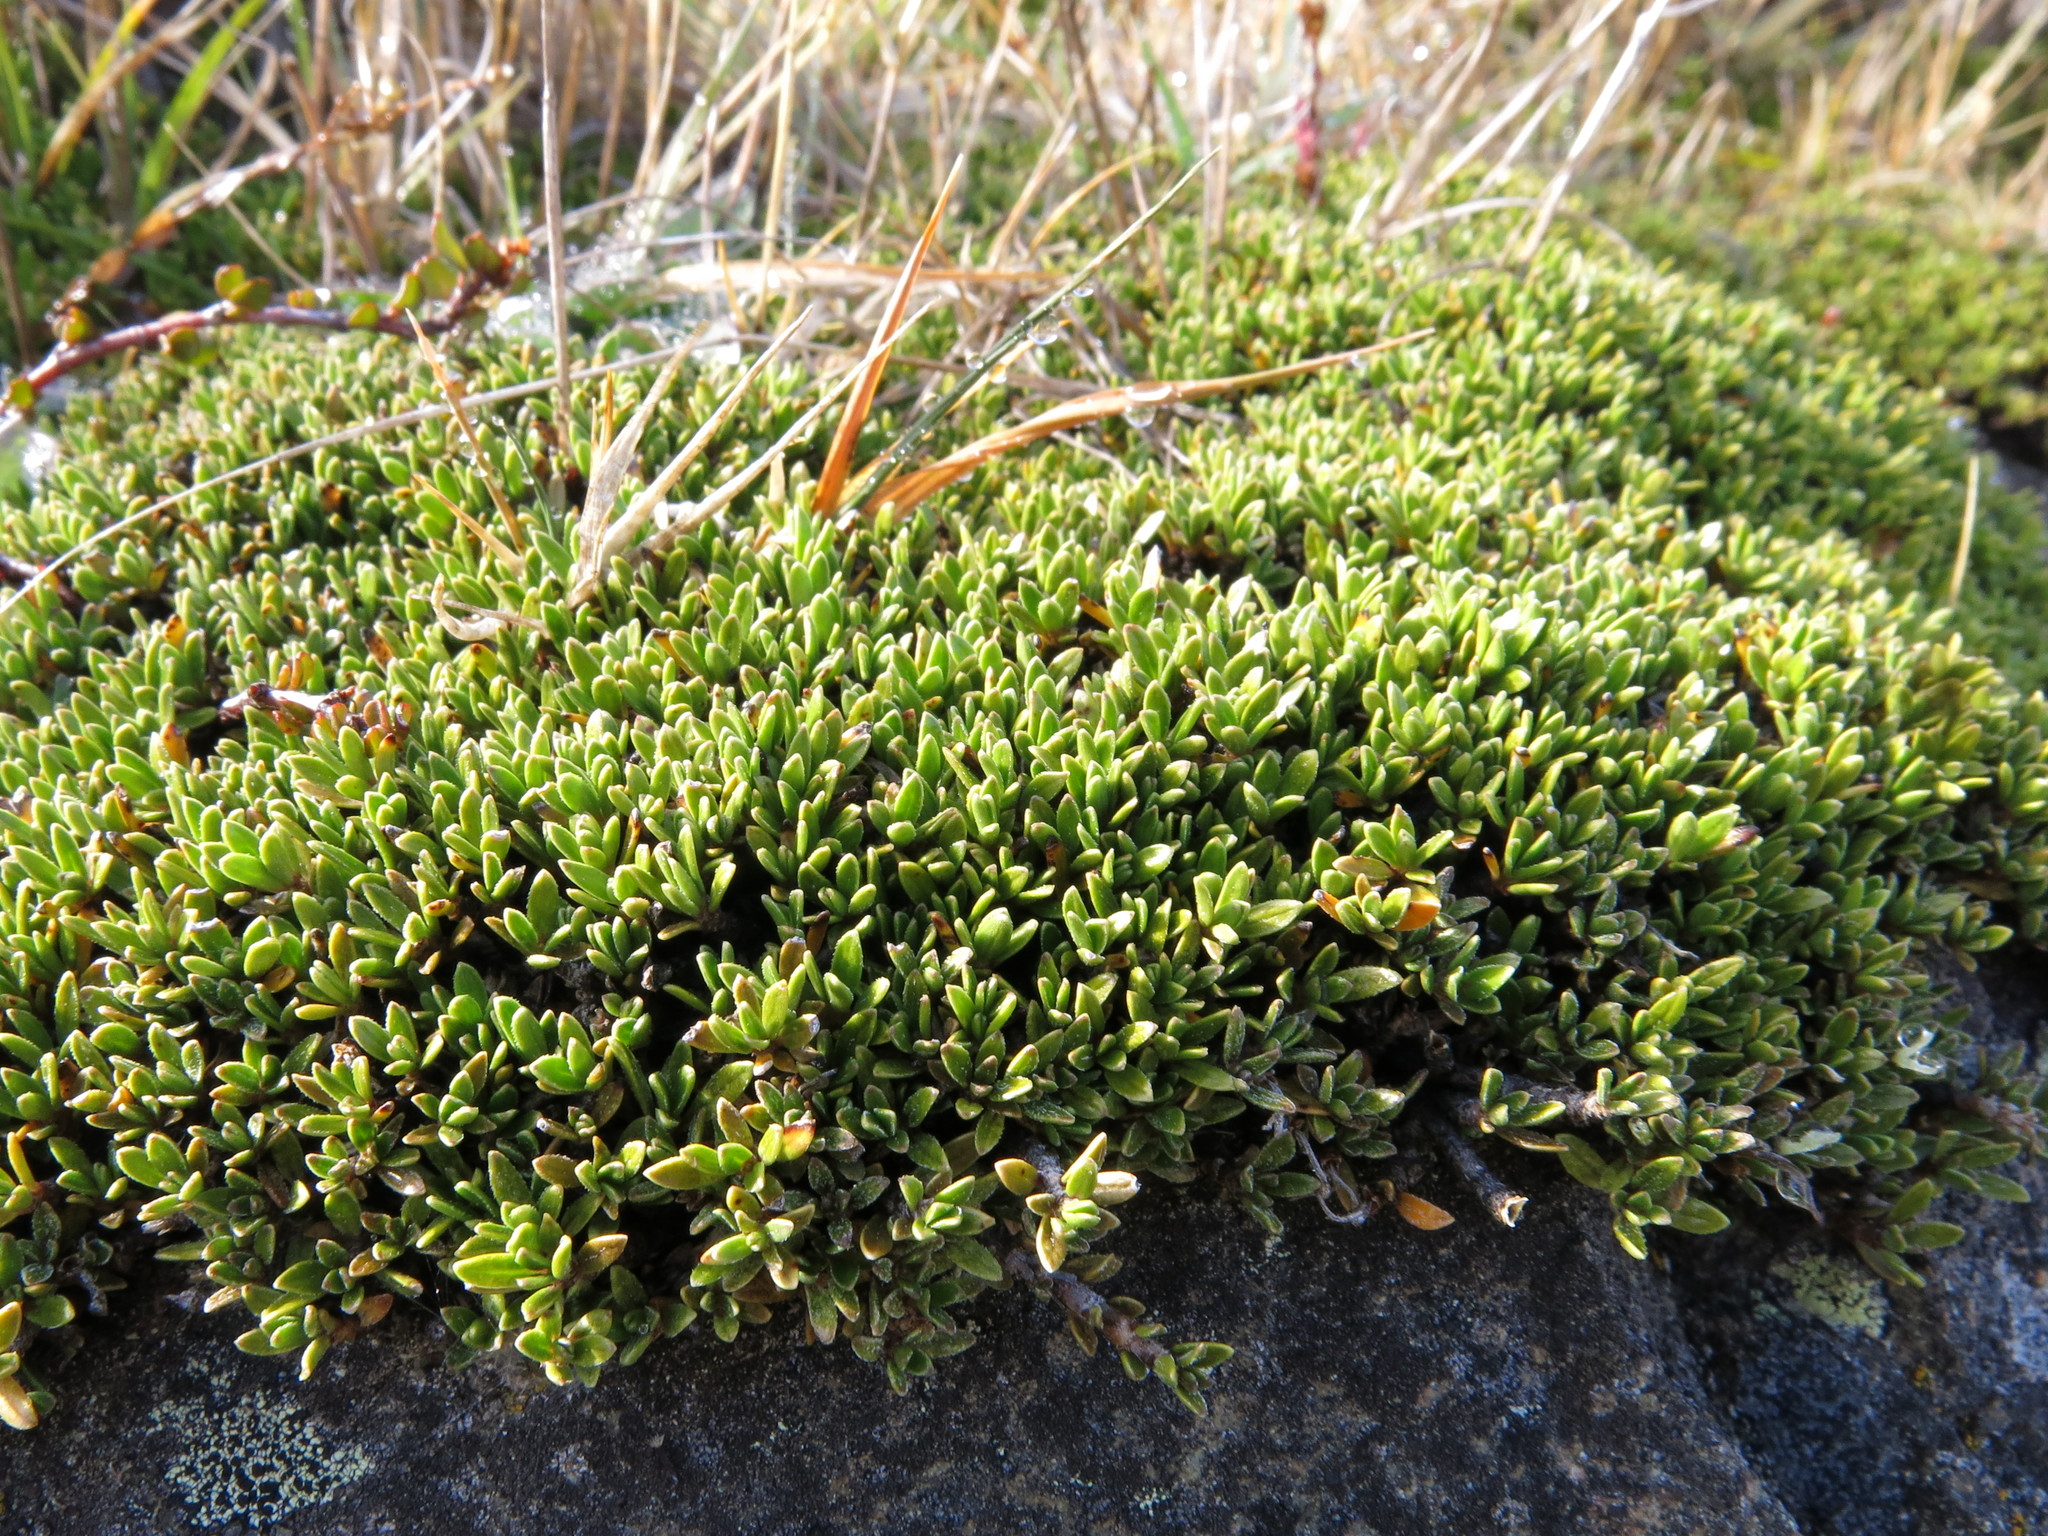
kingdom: Plantae
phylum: Tracheophyta
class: Magnoliopsida
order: Gentianales
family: Rubiaceae
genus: Coprosma
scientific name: Coprosma petriei
